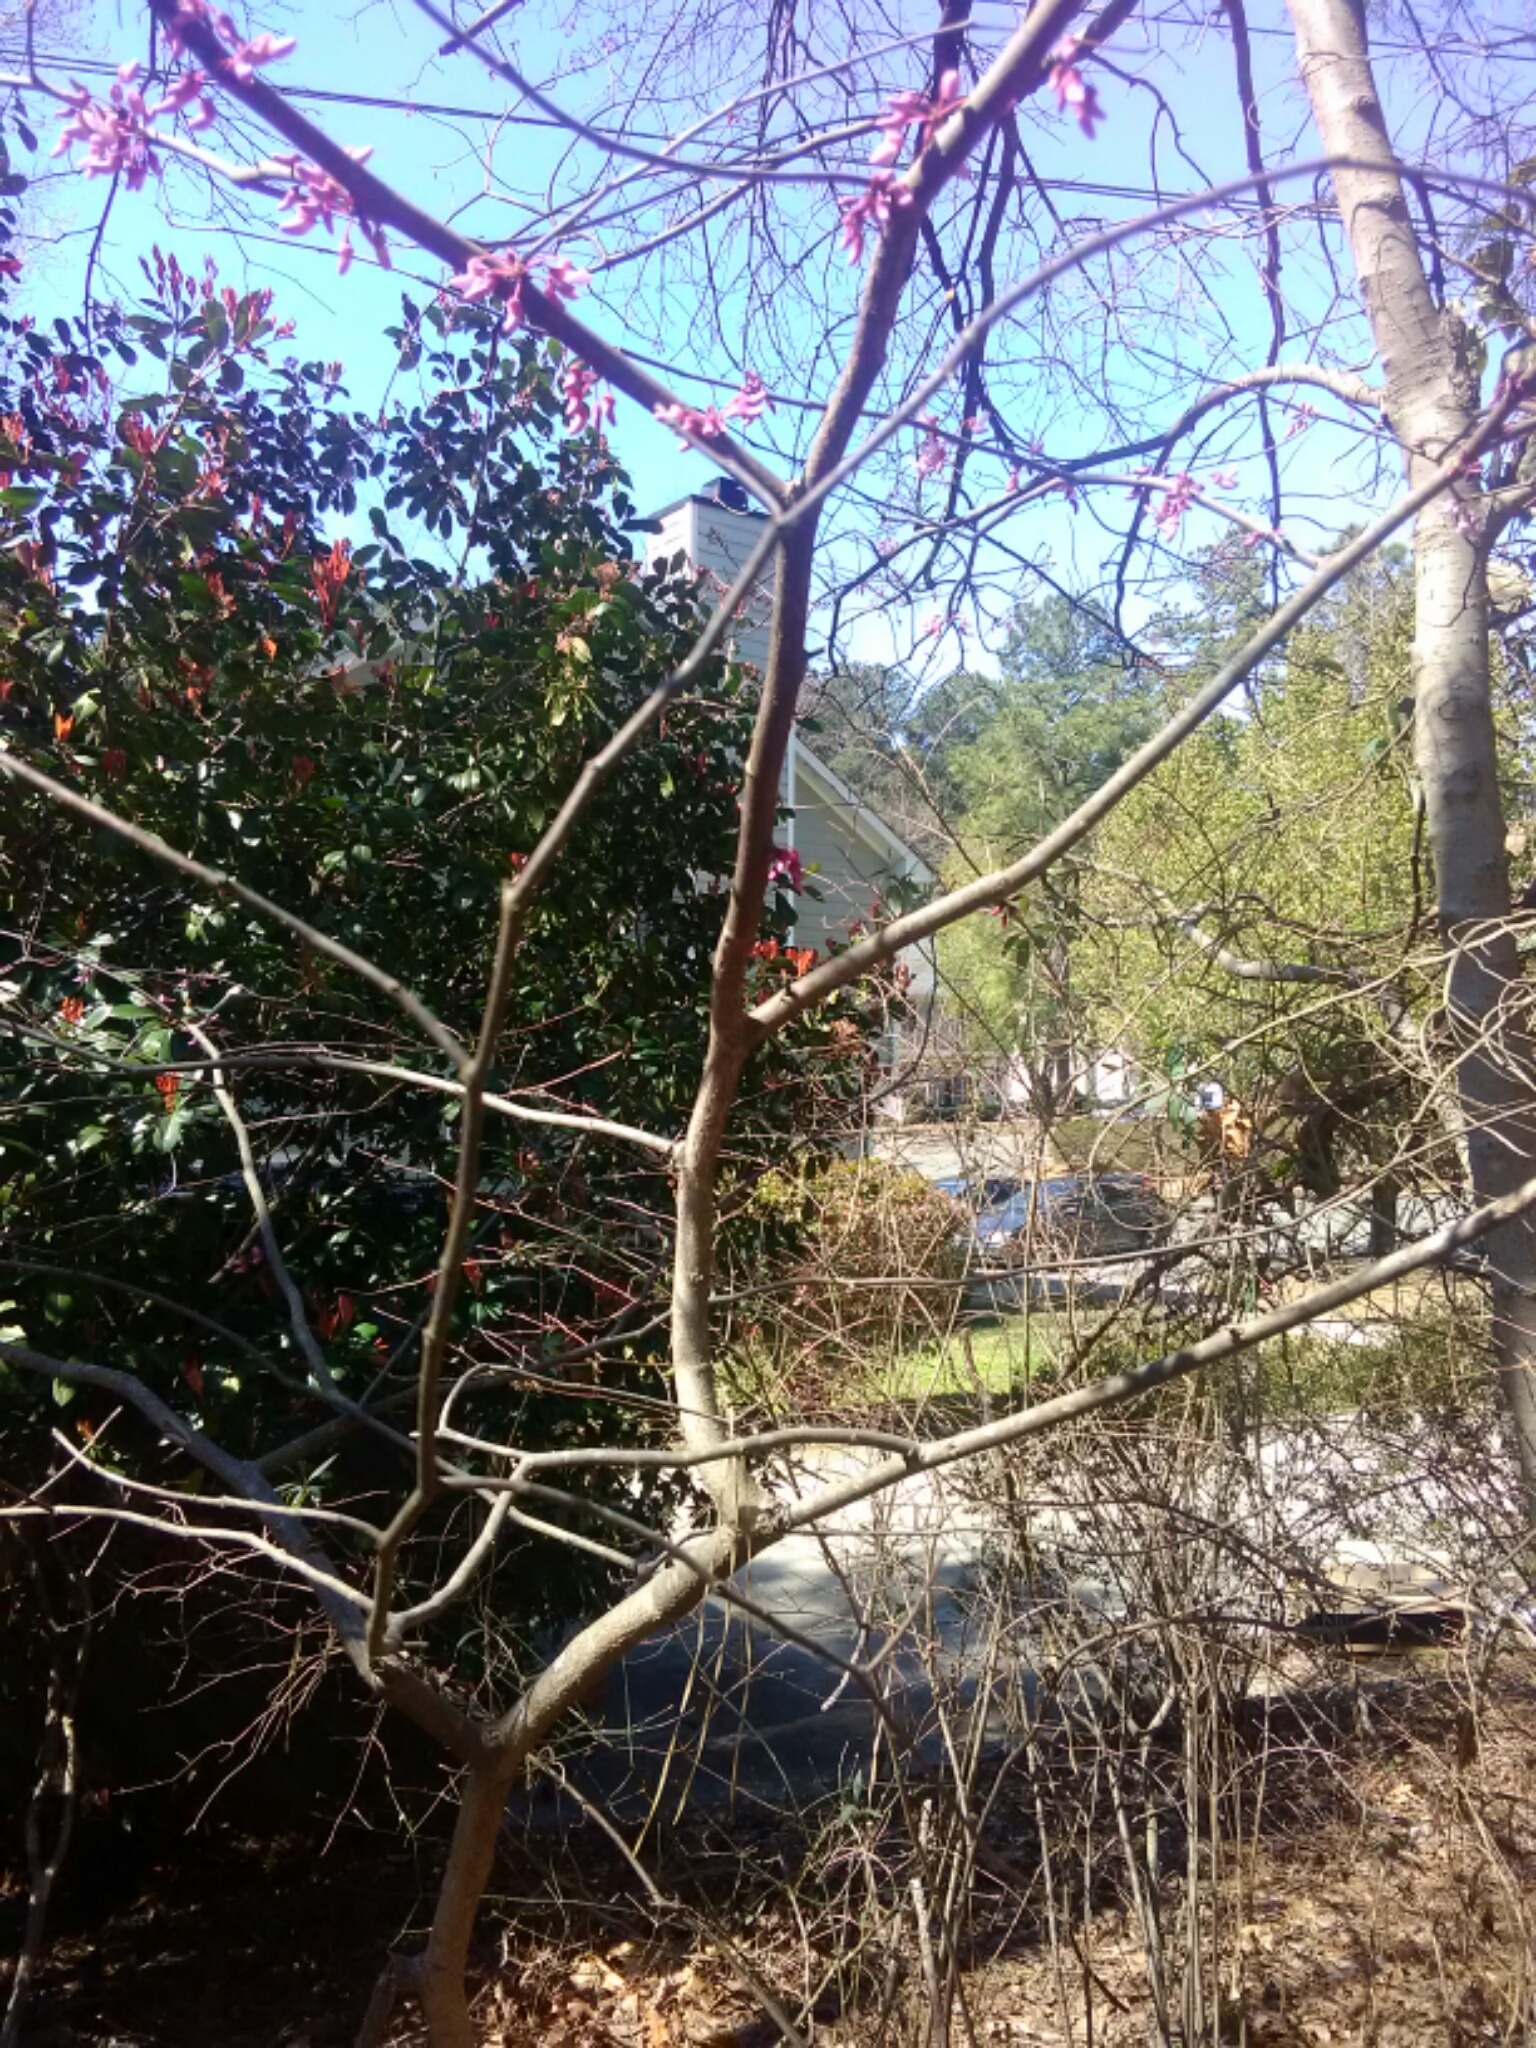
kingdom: Plantae
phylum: Tracheophyta
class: Magnoliopsida
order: Fabales
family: Fabaceae
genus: Cercis
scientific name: Cercis canadensis
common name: Eastern redbud
